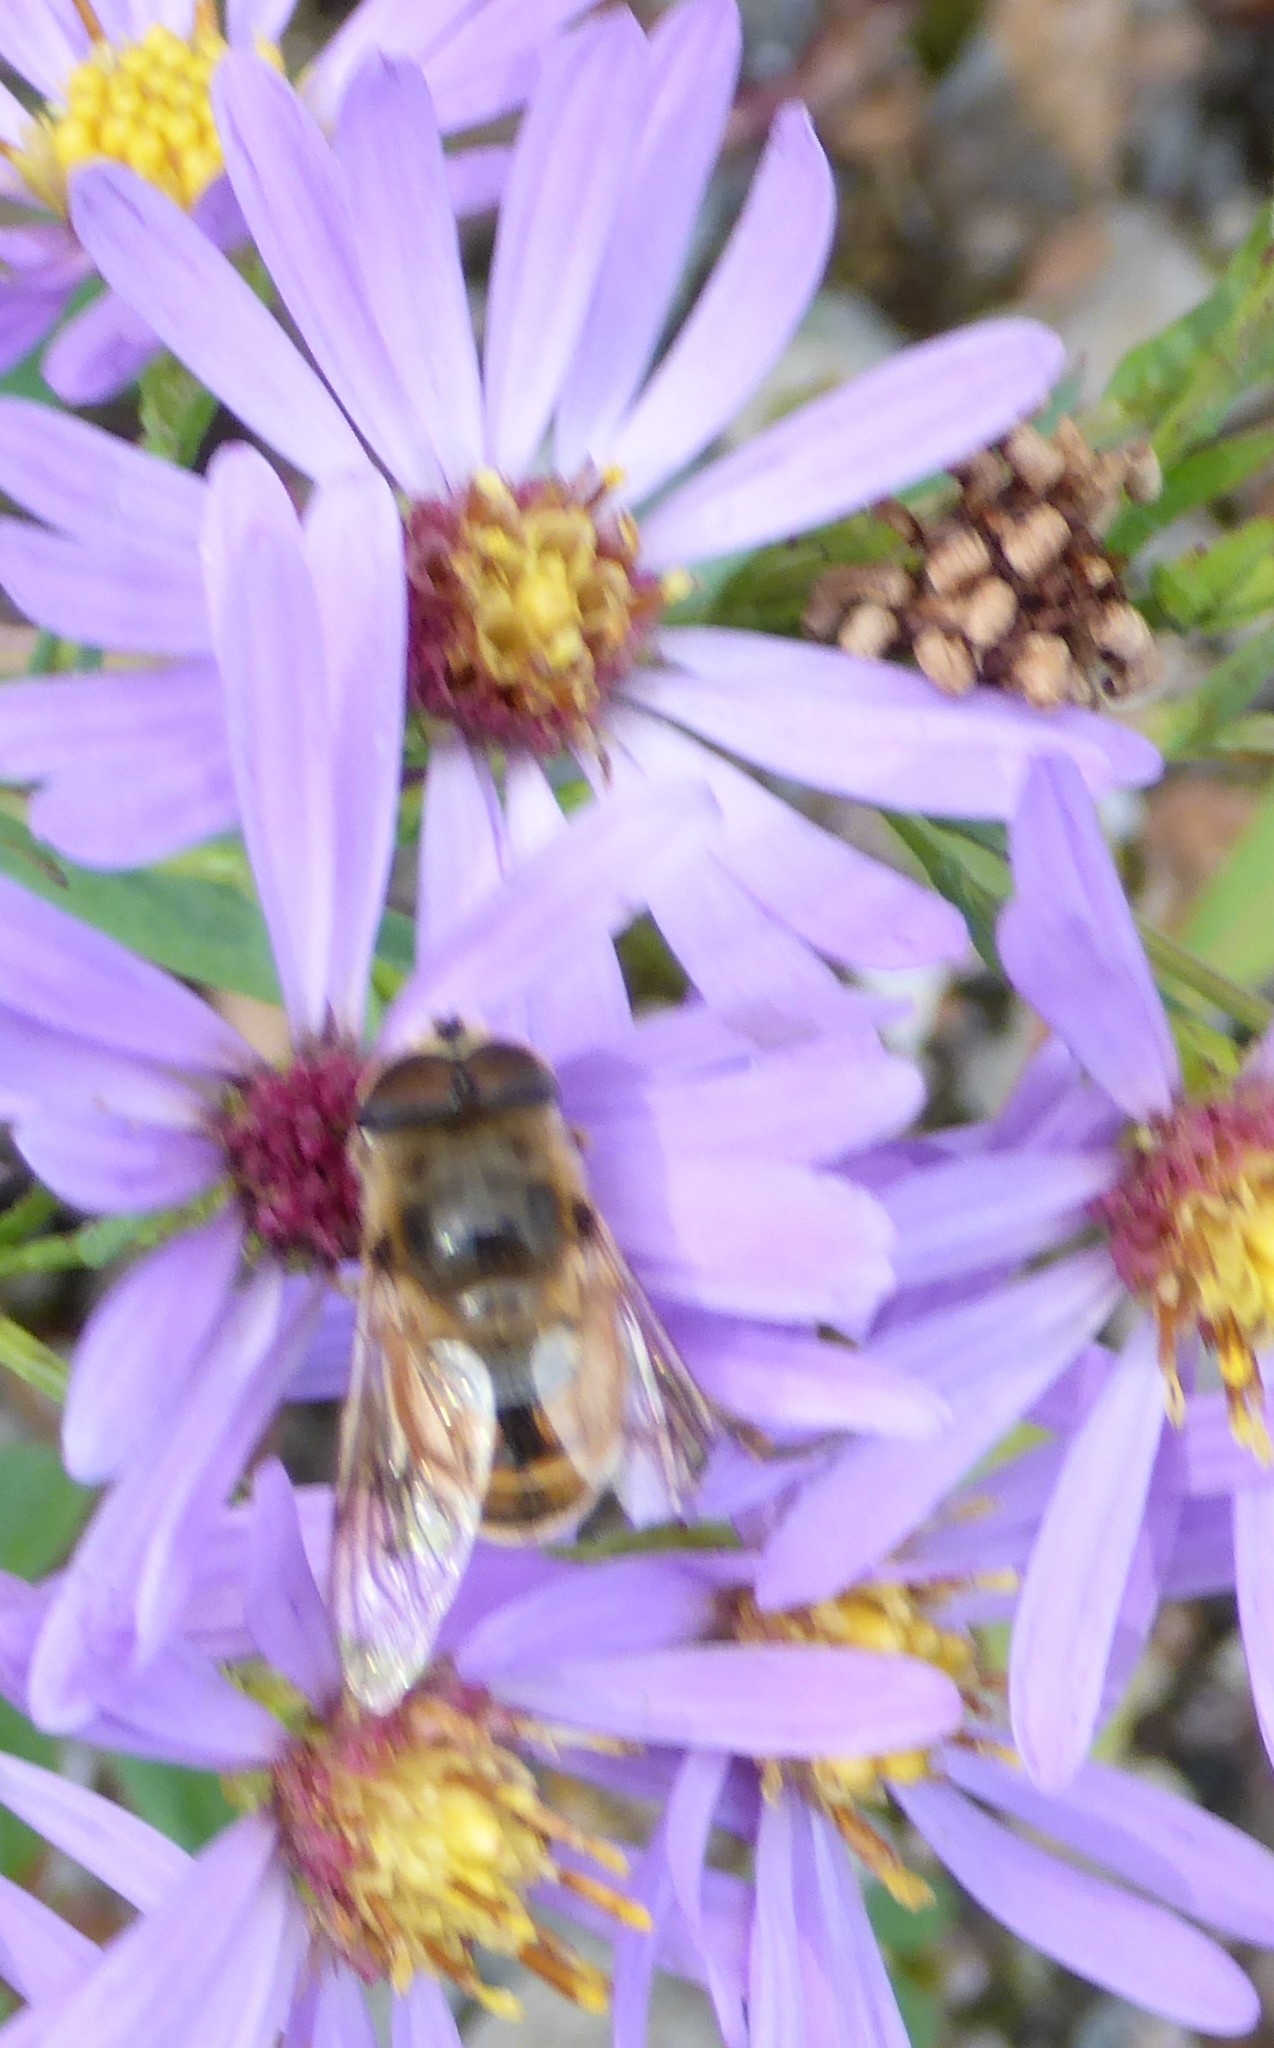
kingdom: Animalia
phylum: Arthropoda
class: Insecta
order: Diptera
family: Syrphidae
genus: Eristalis
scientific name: Eristalis tenax
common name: Drone fly
